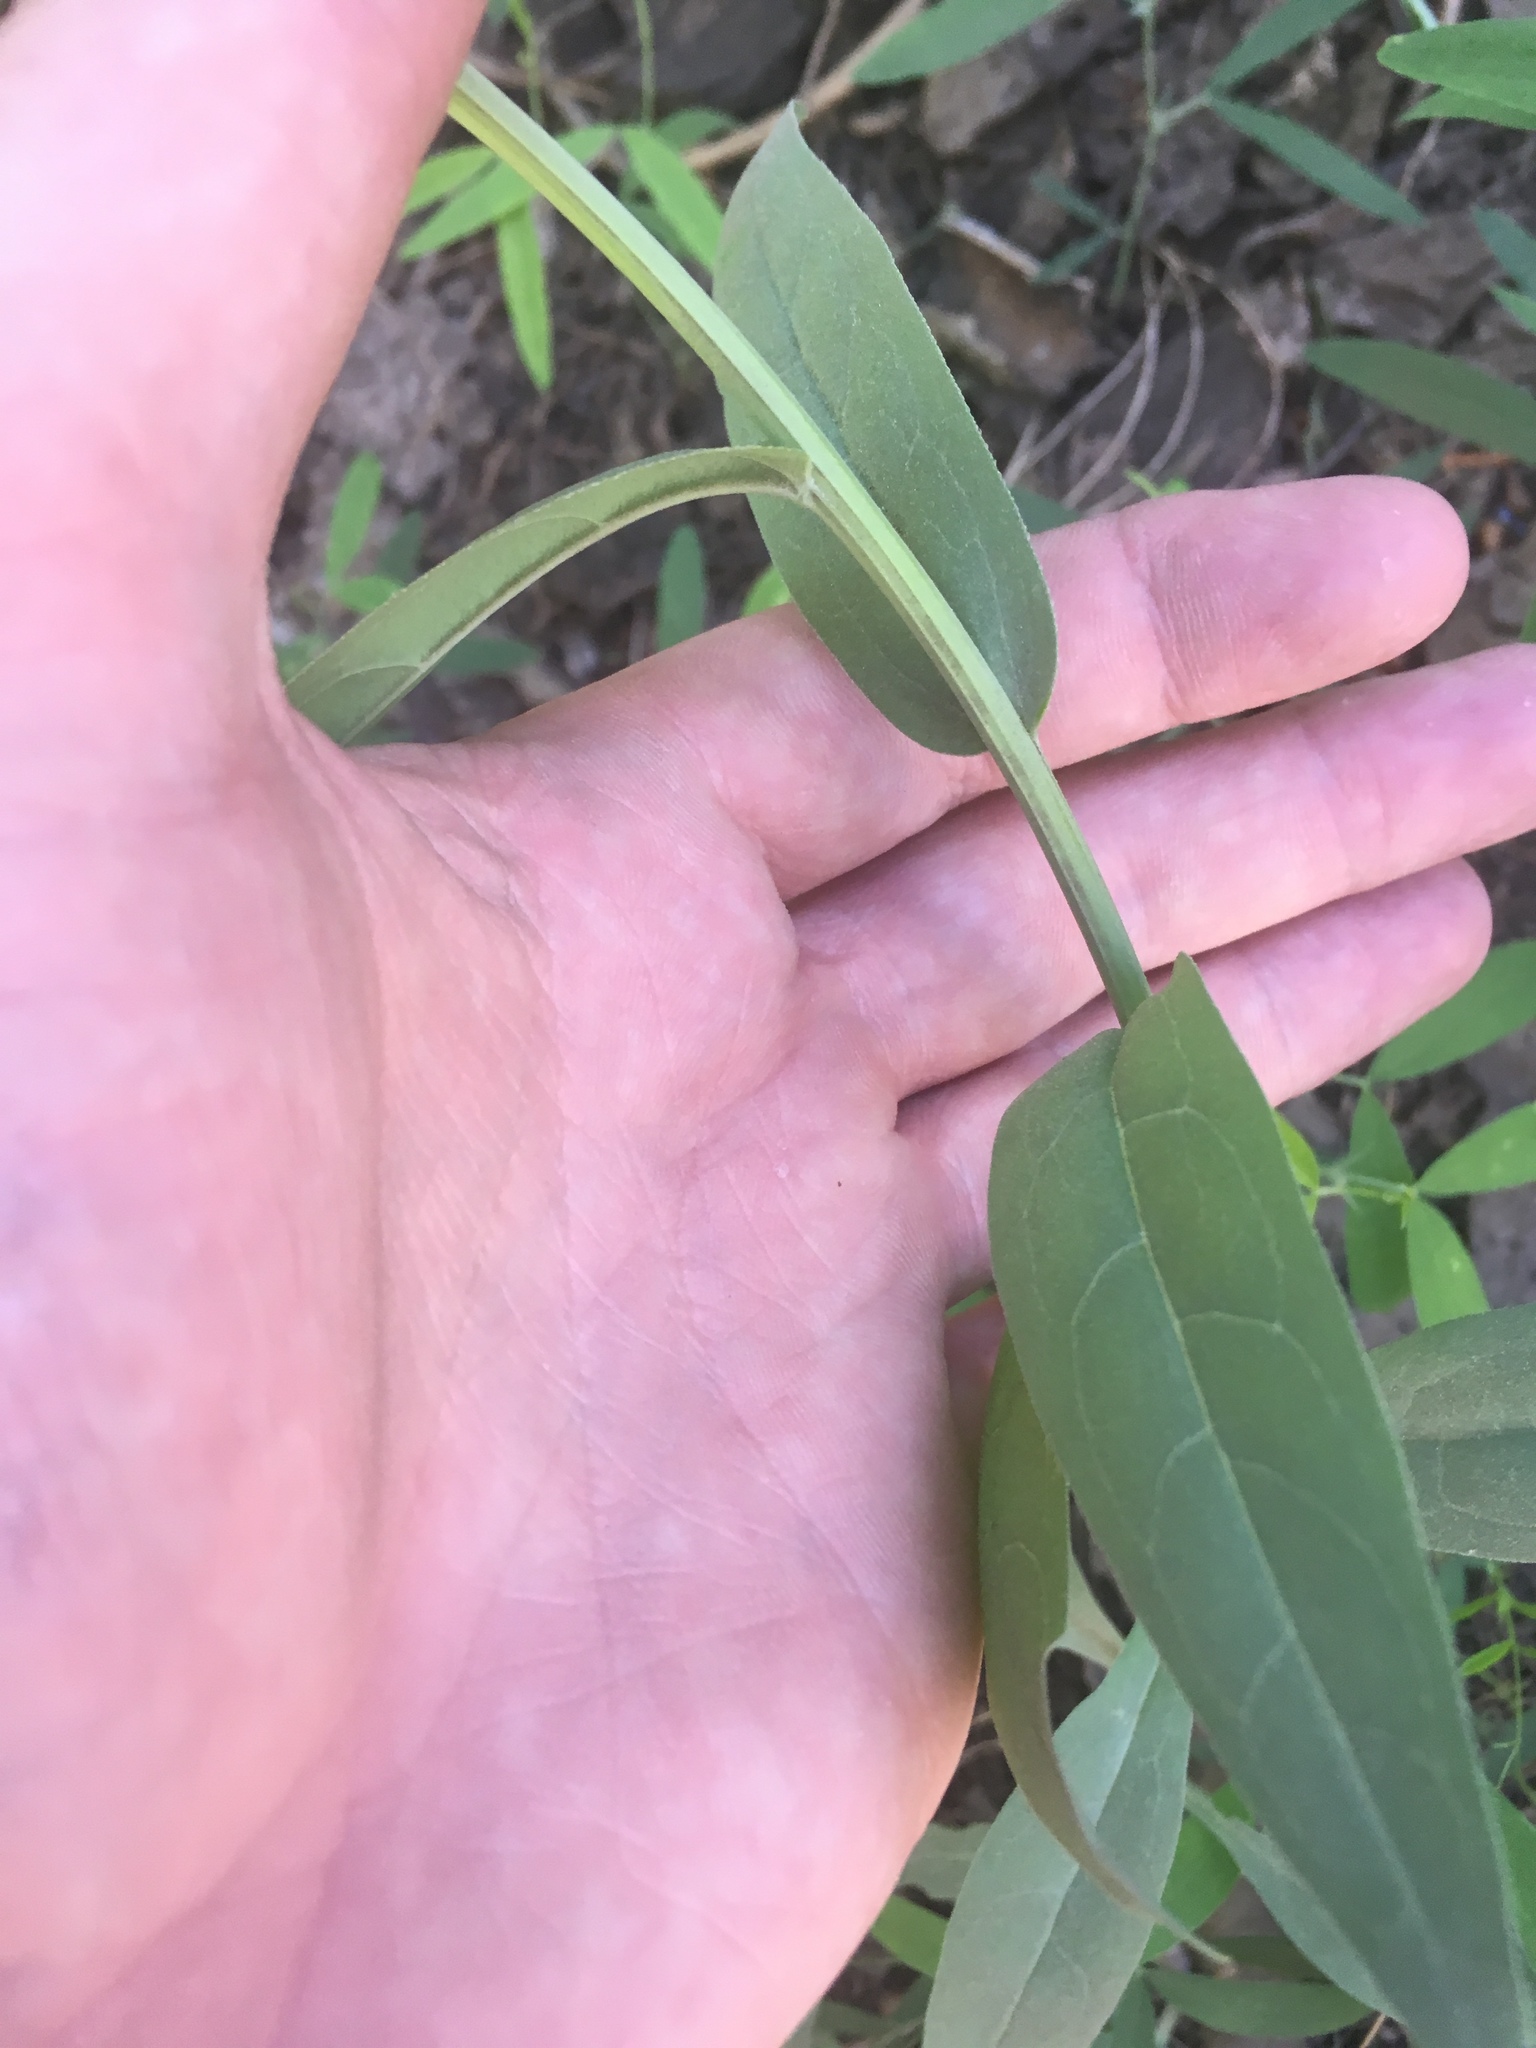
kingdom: Plantae
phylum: Tracheophyta
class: Magnoliopsida
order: Boraginales
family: Boraginaceae
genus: Mertensia
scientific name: Mertensia franciscana
